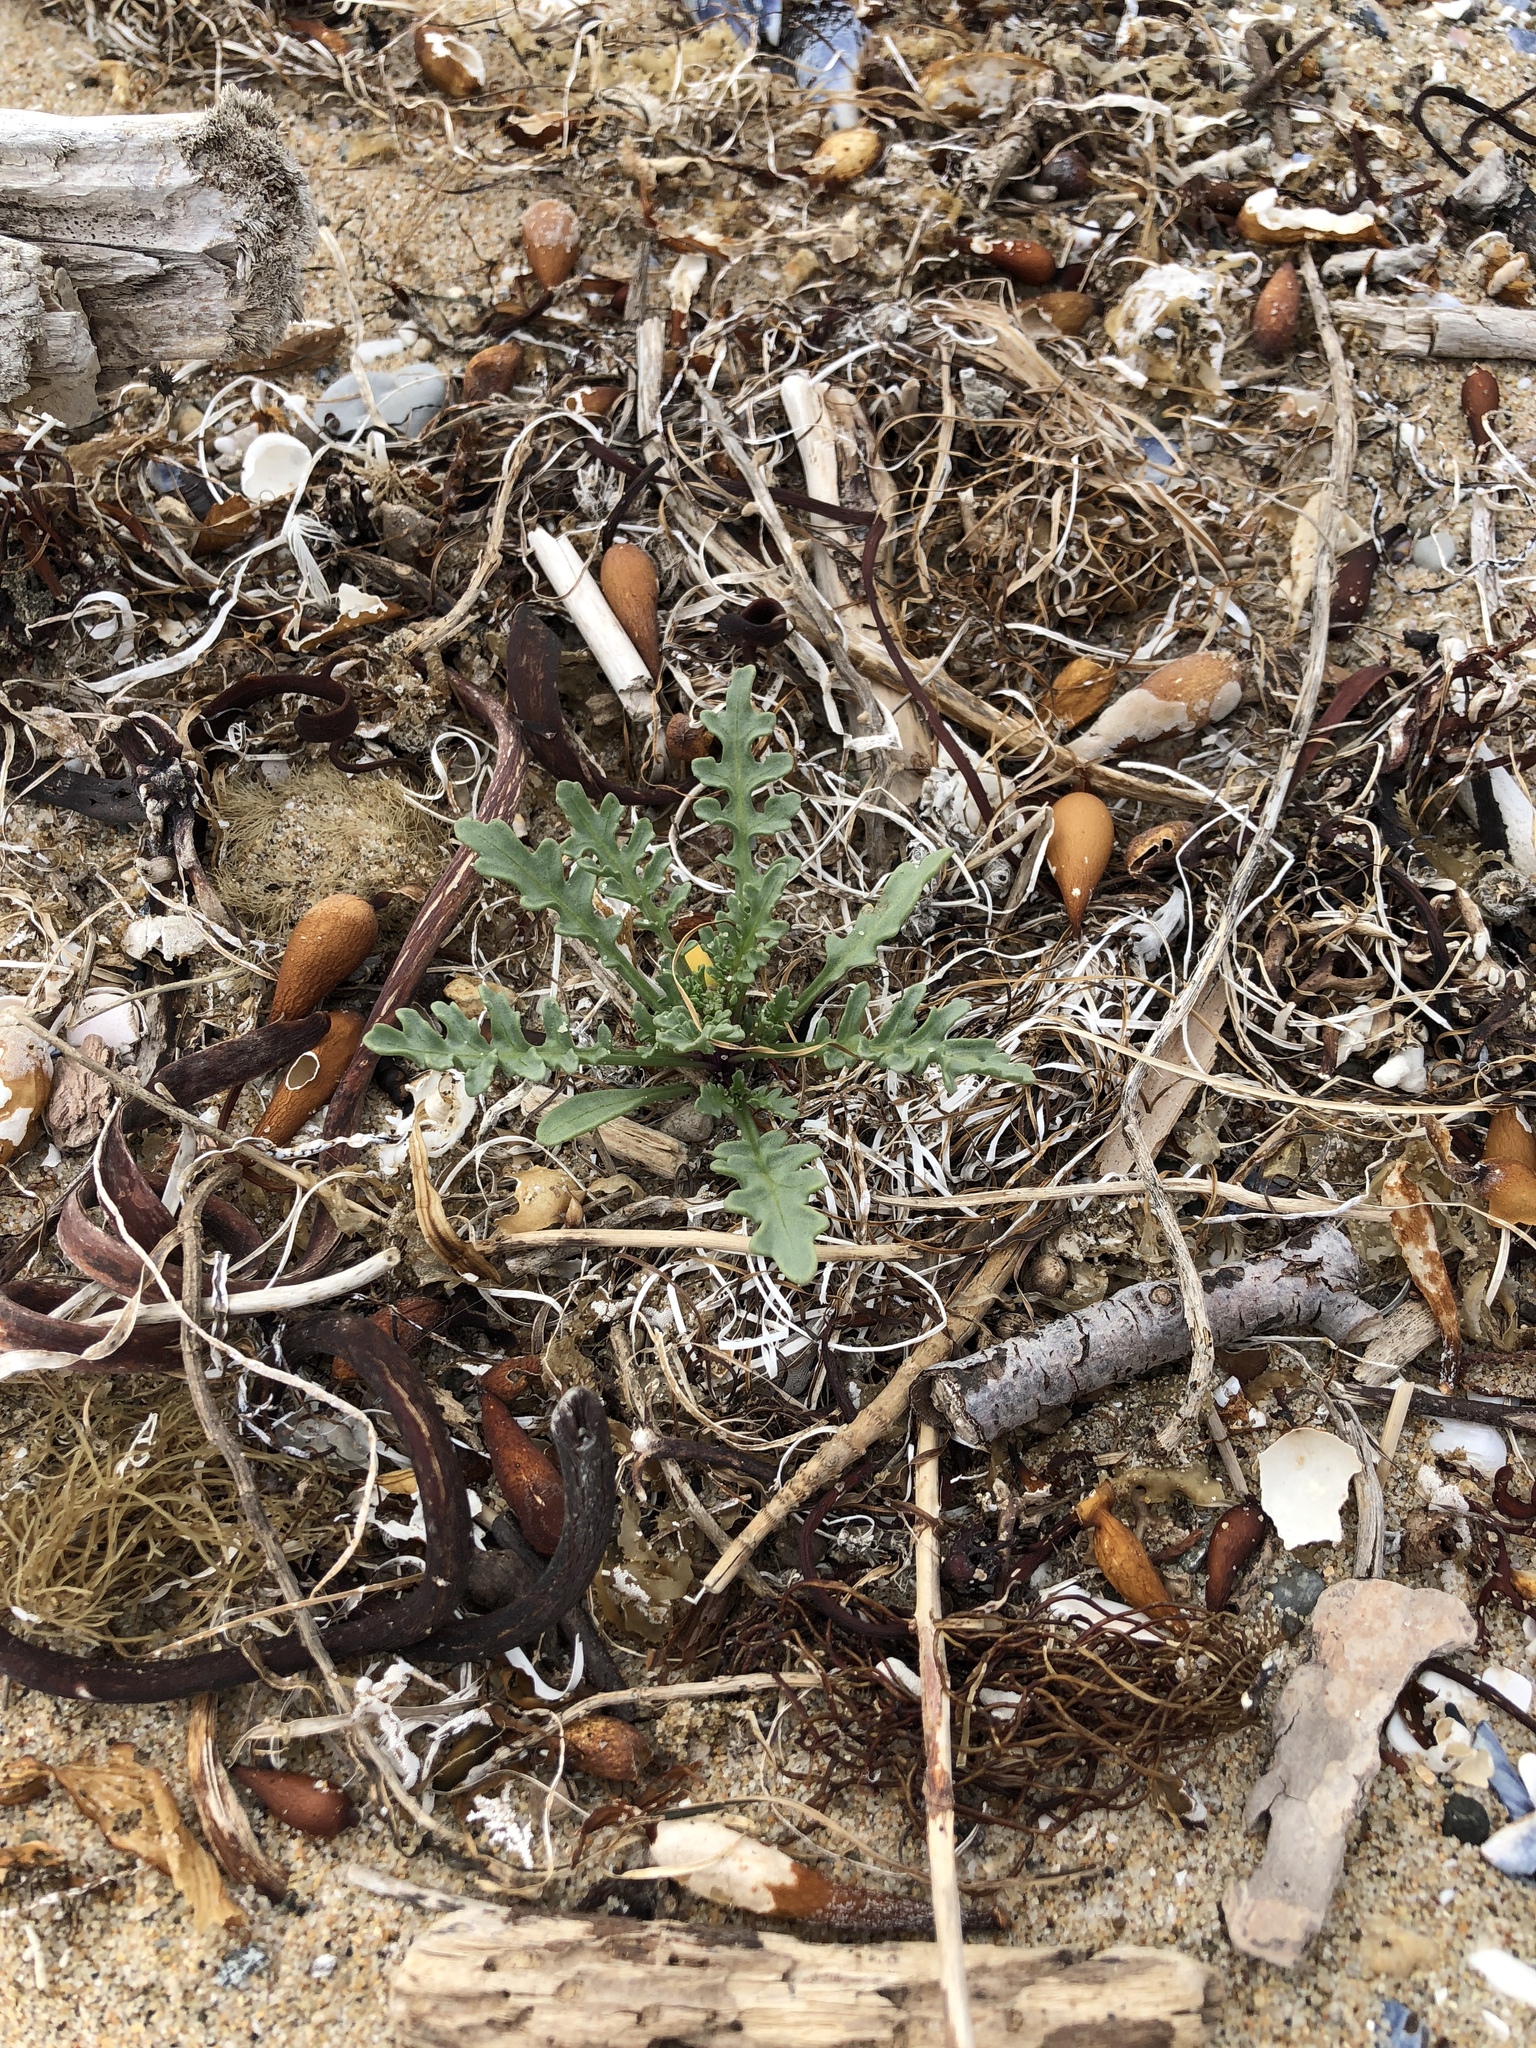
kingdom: Plantae
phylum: Tracheophyta
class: Magnoliopsida
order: Brassicales
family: Brassicaceae
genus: Cakile
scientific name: Cakile maritima
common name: Sea rocket
